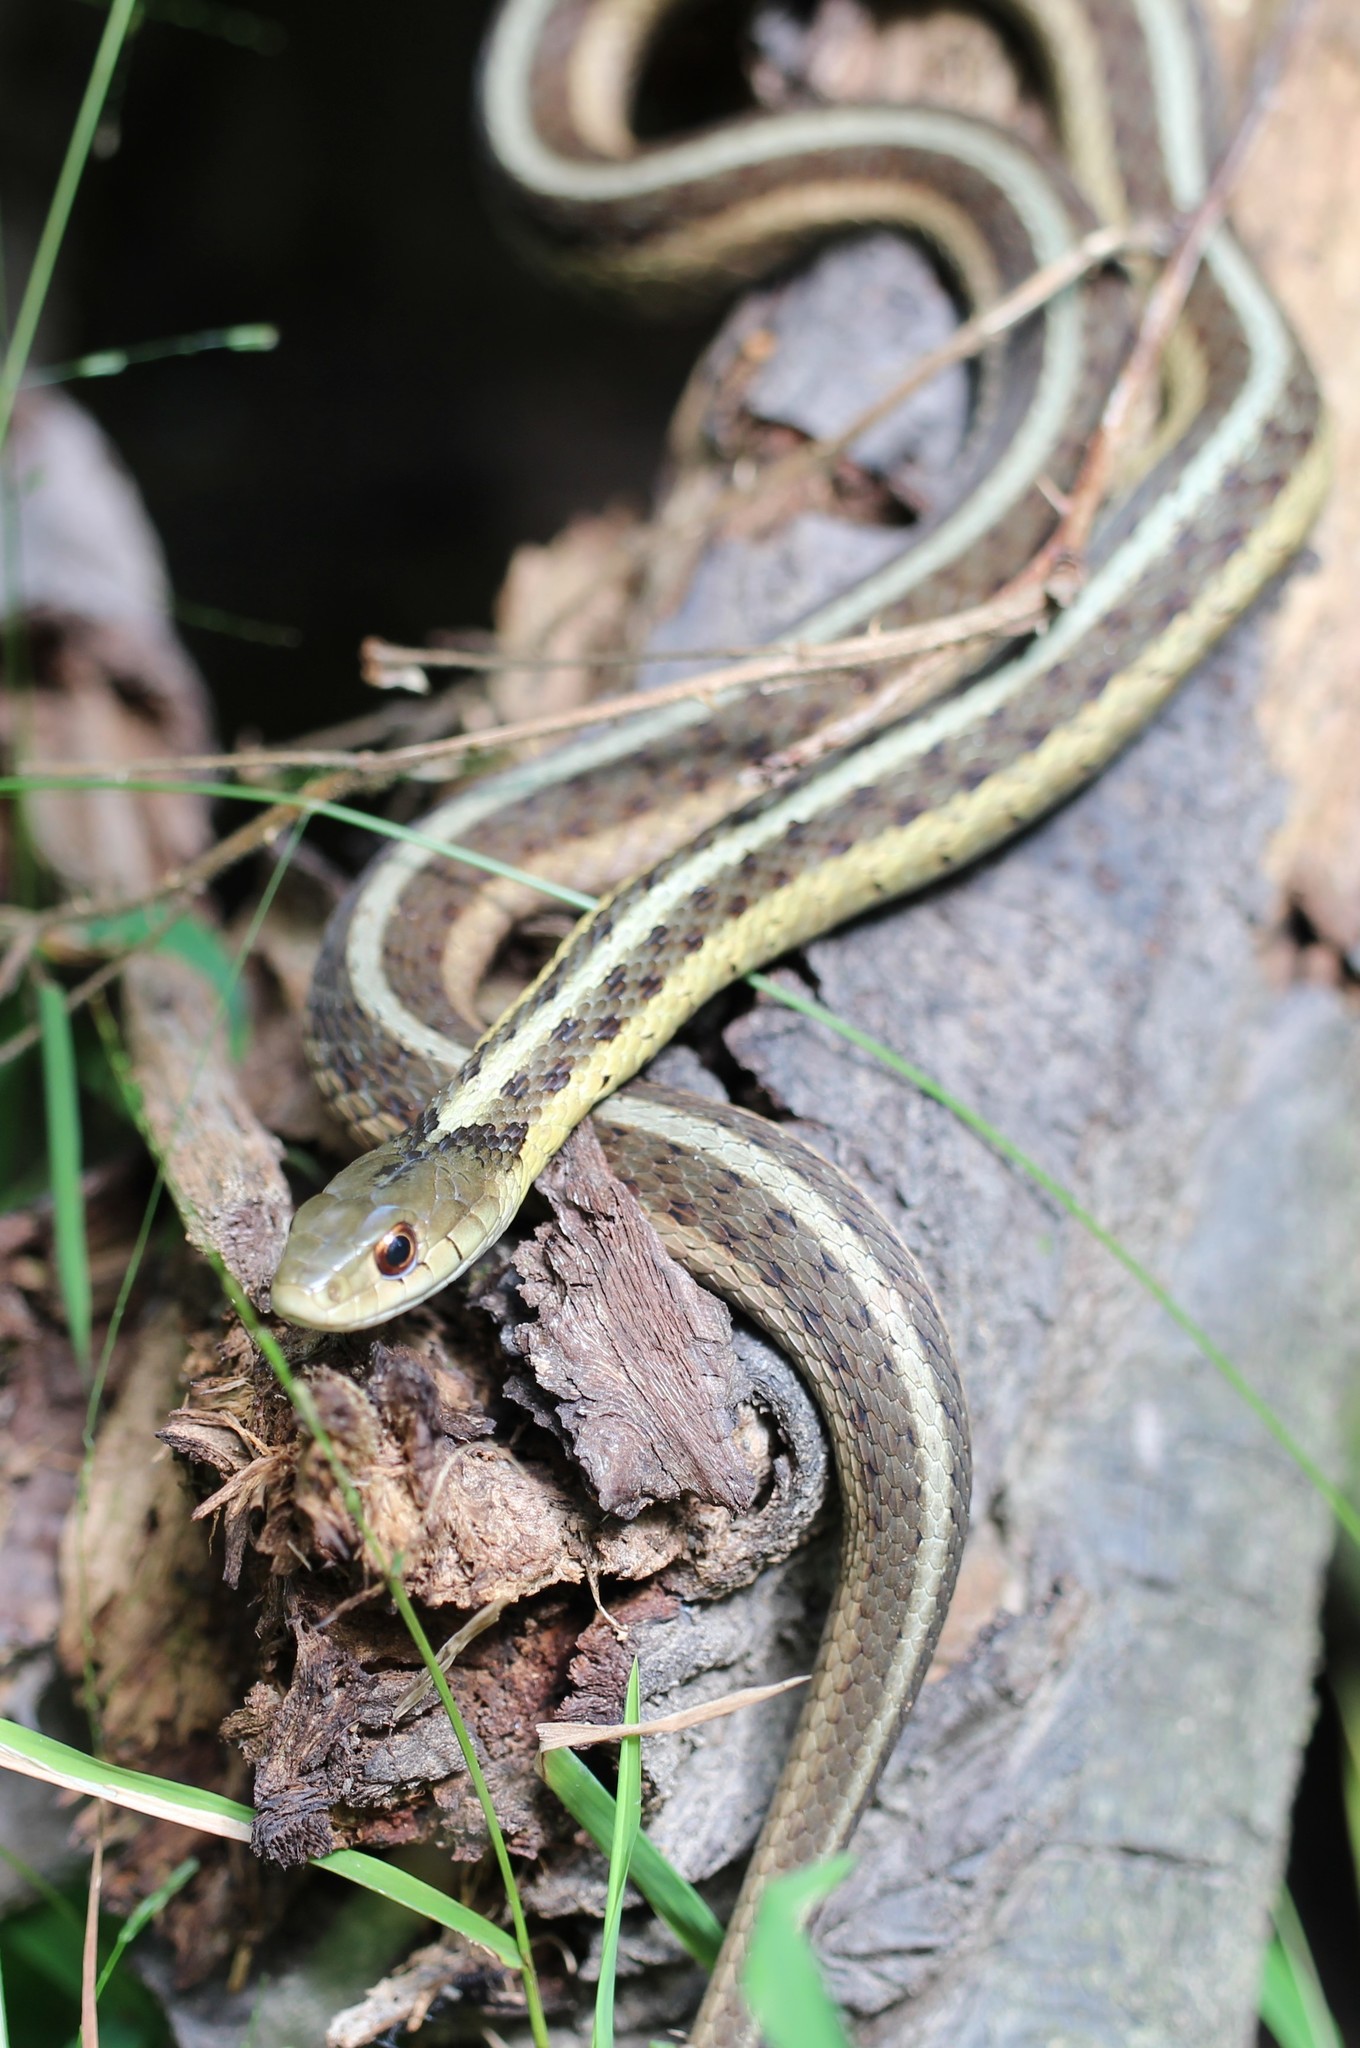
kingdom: Animalia
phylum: Chordata
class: Squamata
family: Colubridae
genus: Thamnophis
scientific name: Thamnophis sirtalis
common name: Common garter snake
